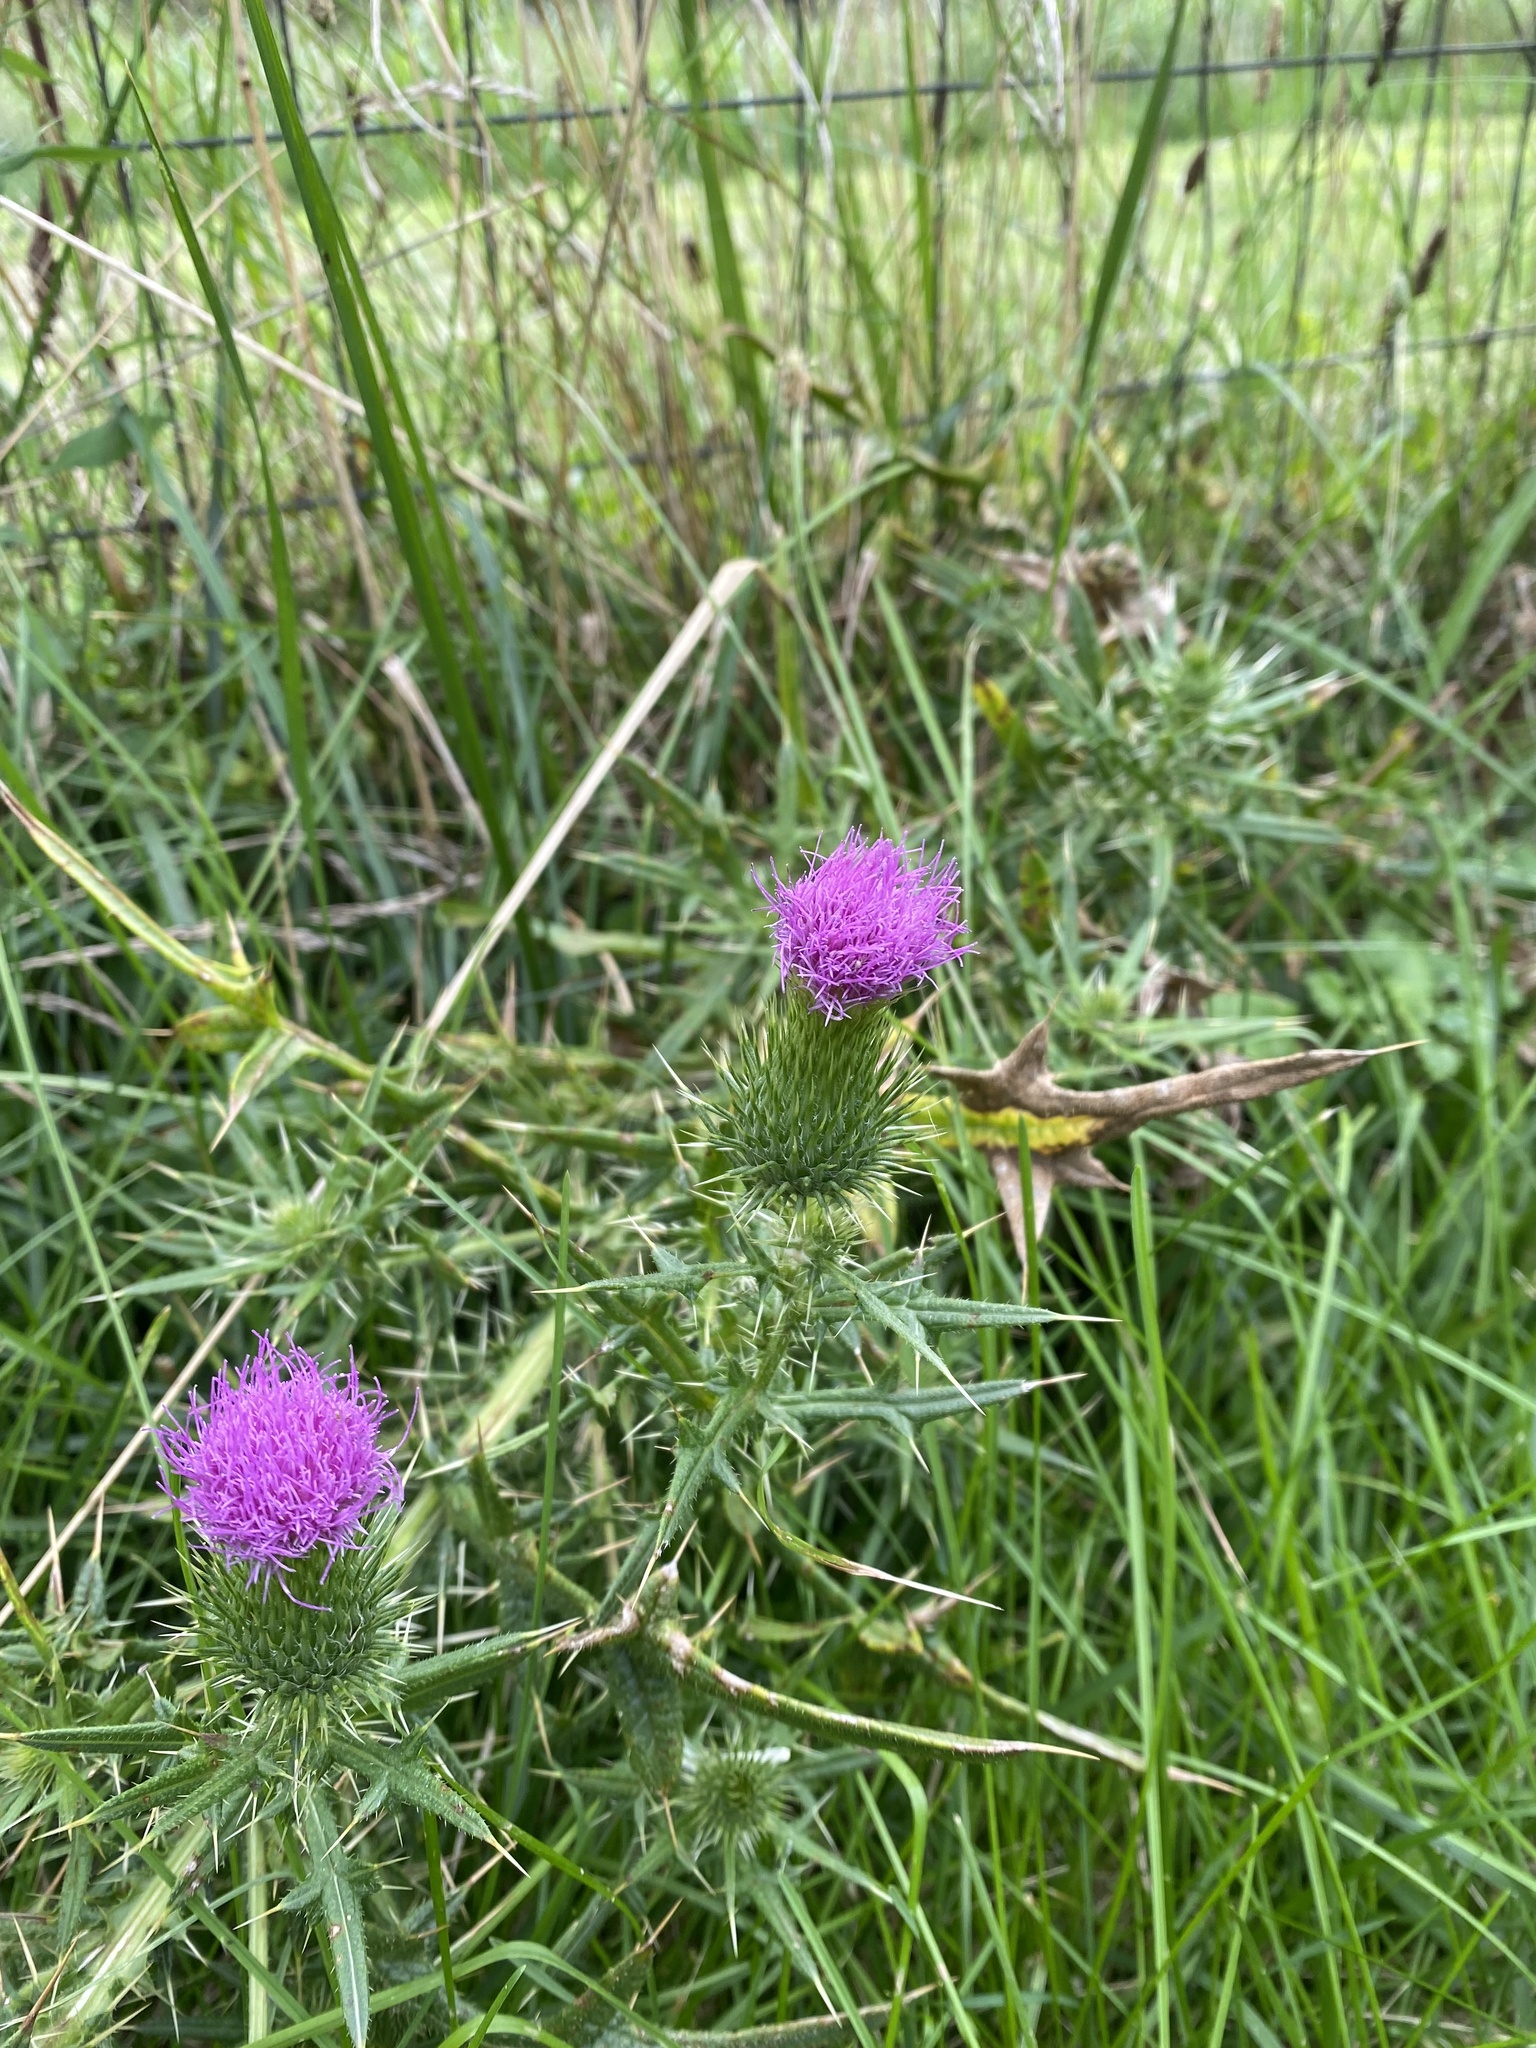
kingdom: Plantae
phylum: Tracheophyta
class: Magnoliopsida
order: Asterales
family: Asteraceae
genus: Cirsium
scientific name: Cirsium vulgare
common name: Bull thistle
